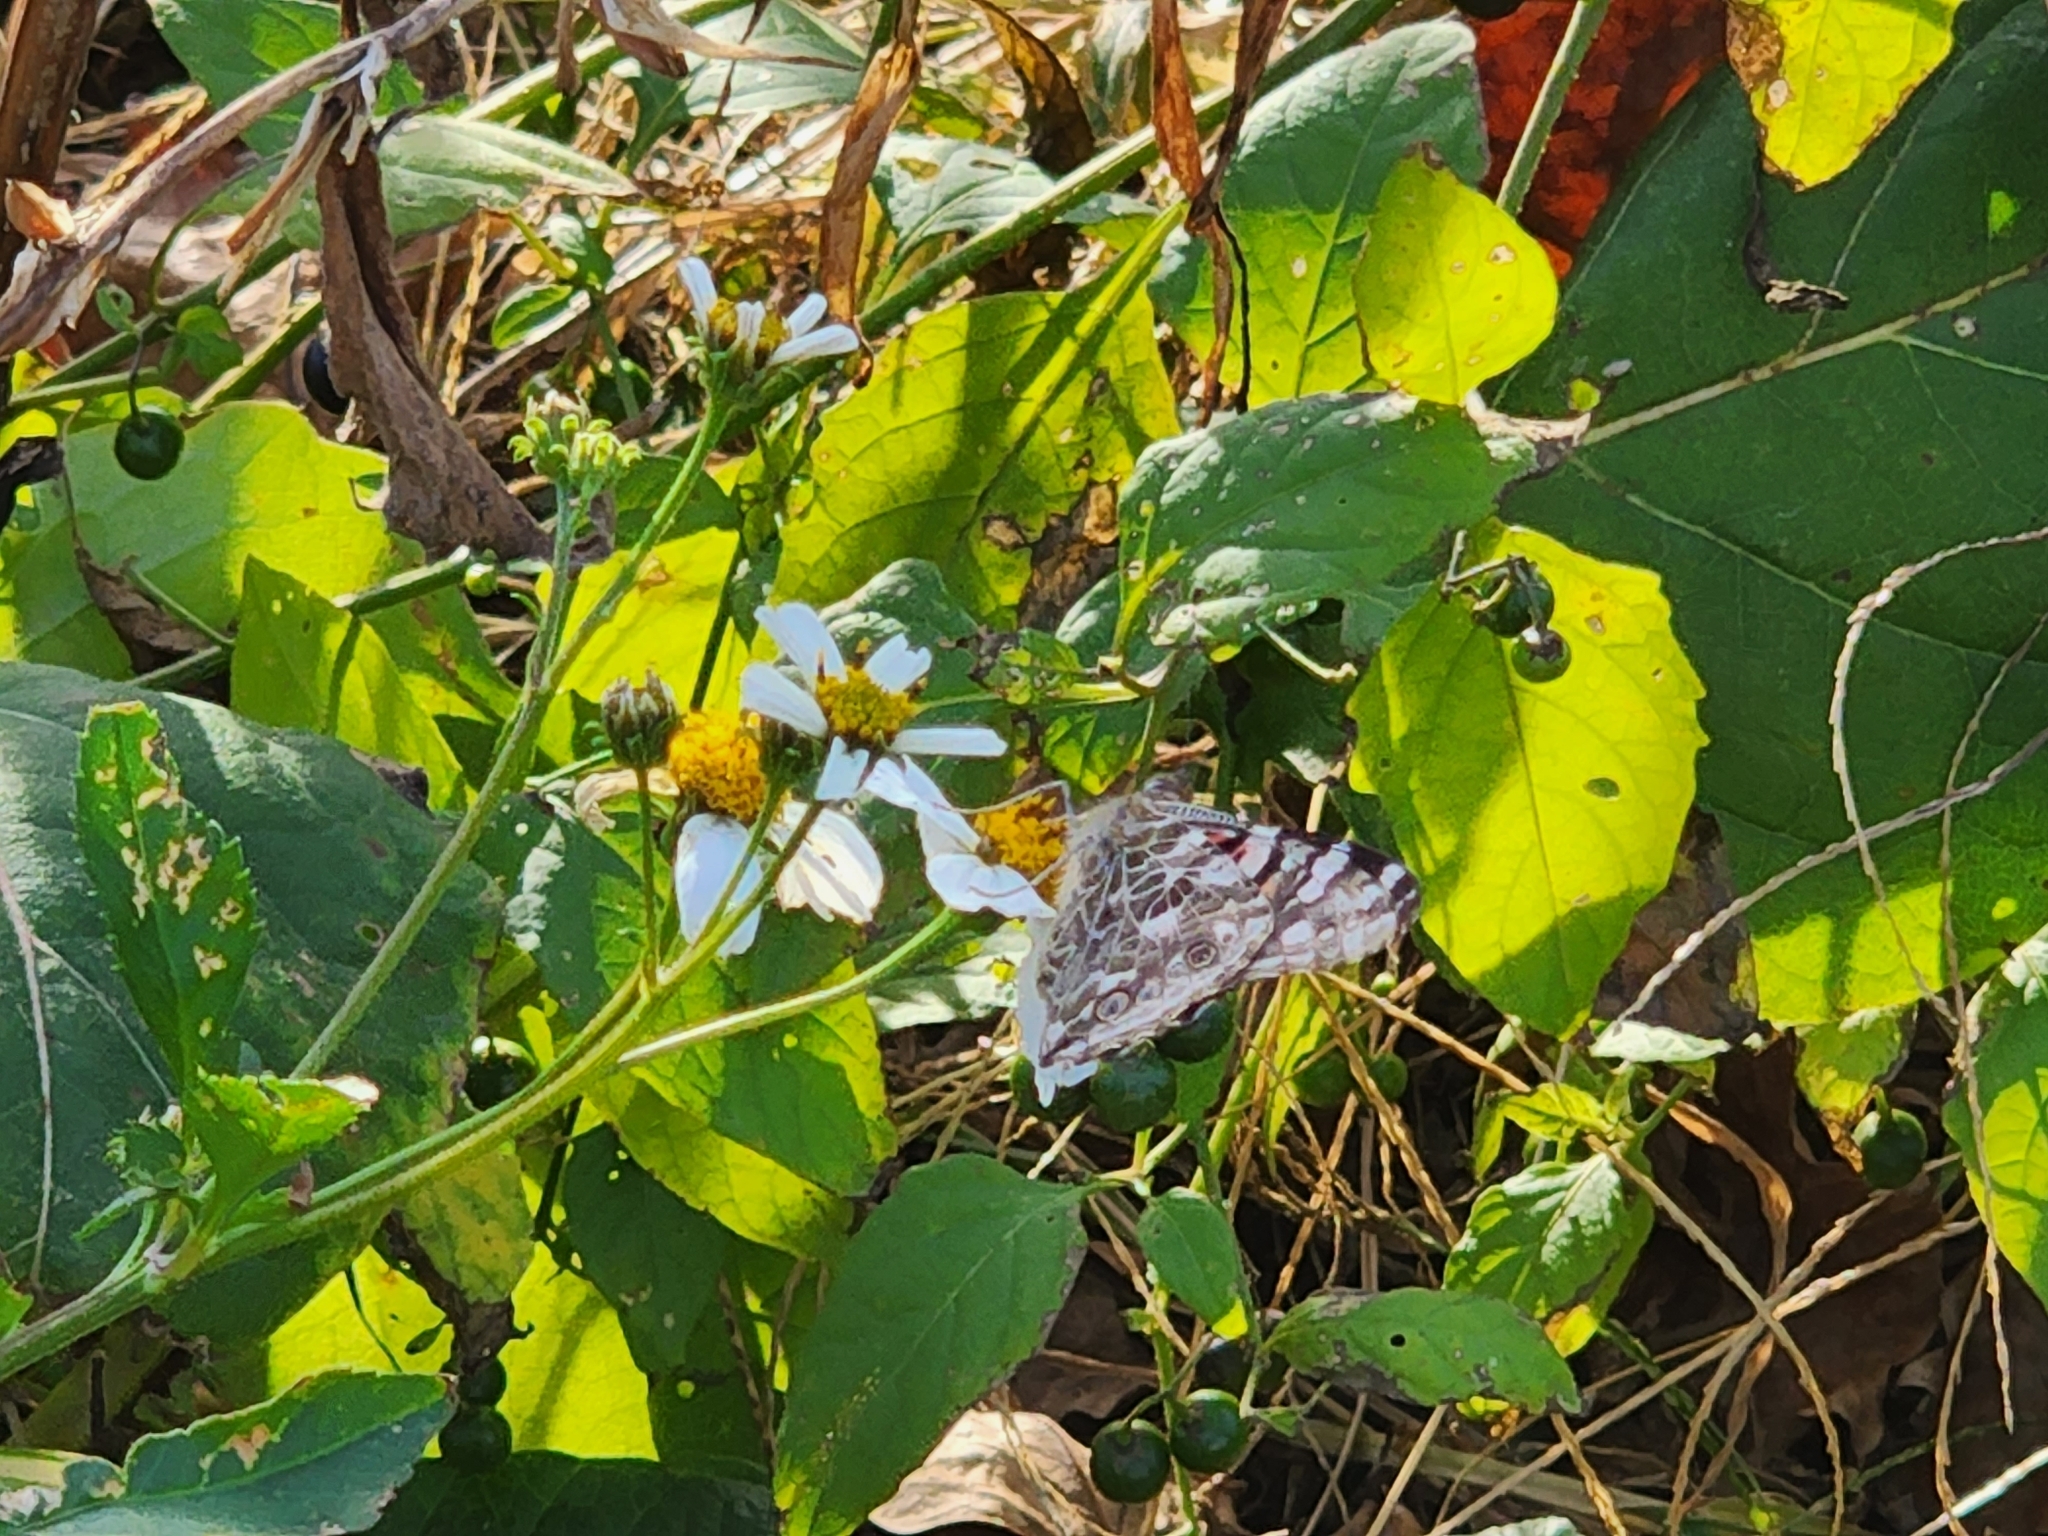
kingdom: Animalia
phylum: Arthropoda
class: Insecta
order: Lepidoptera
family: Nymphalidae
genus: Vanessa
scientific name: Vanessa cardui
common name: Painted lady
